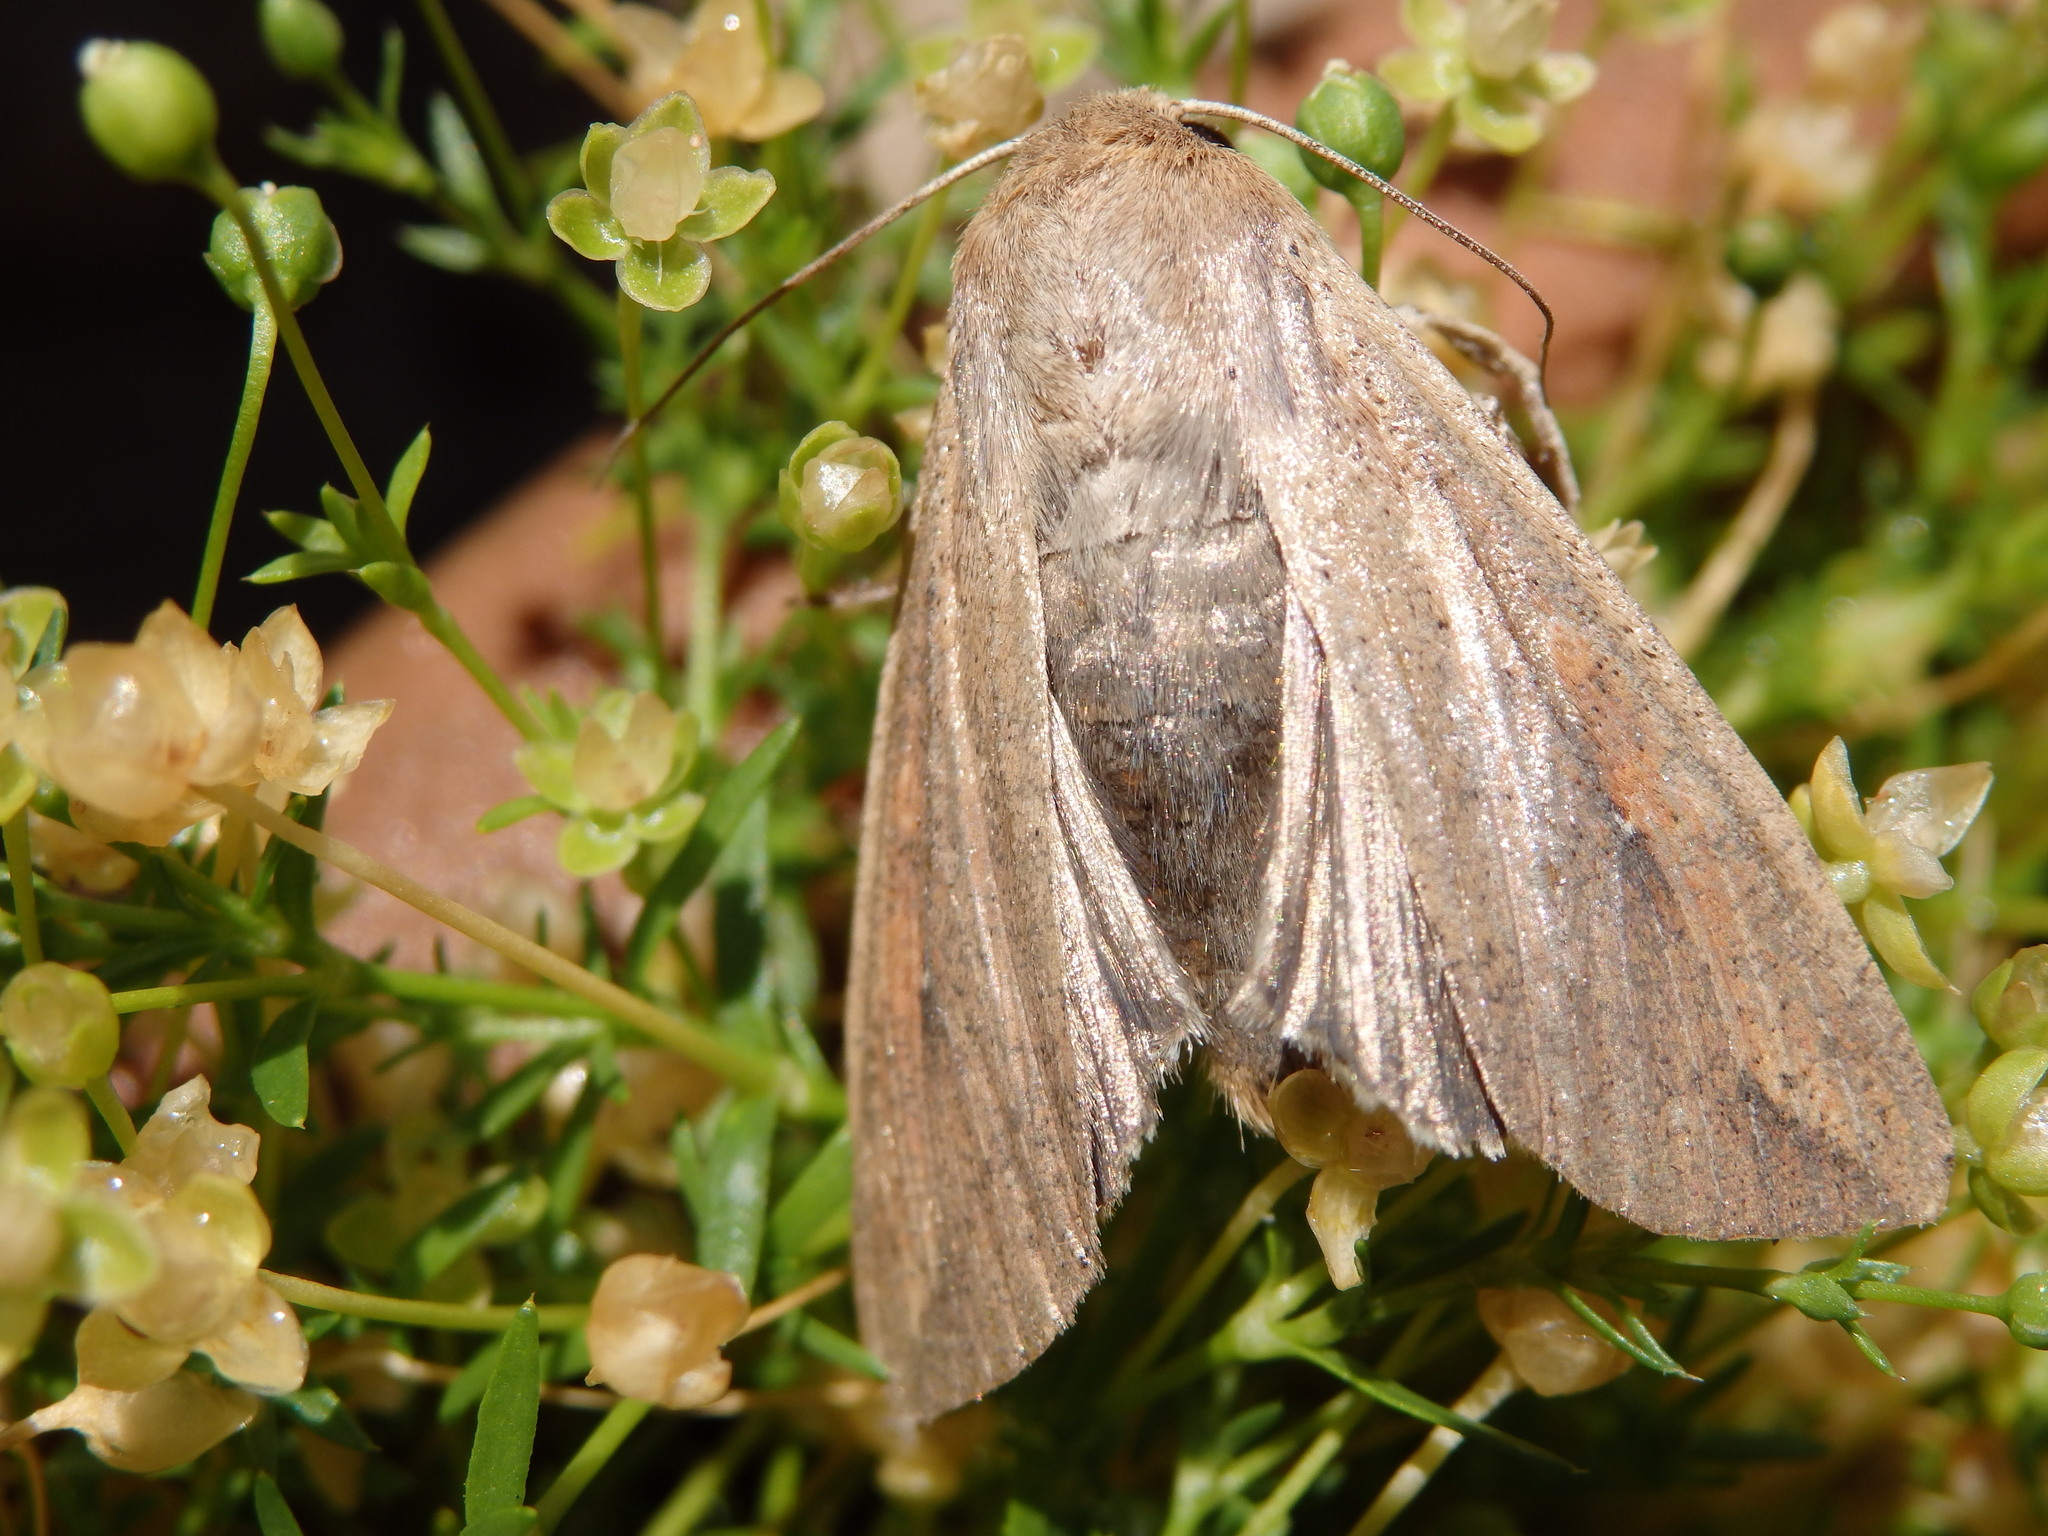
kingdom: Animalia
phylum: Arthropoda
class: Insecta
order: Lepidoptera
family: Noctuidae
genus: Mythimna
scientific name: Mythimna unipuncta
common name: White-speck
